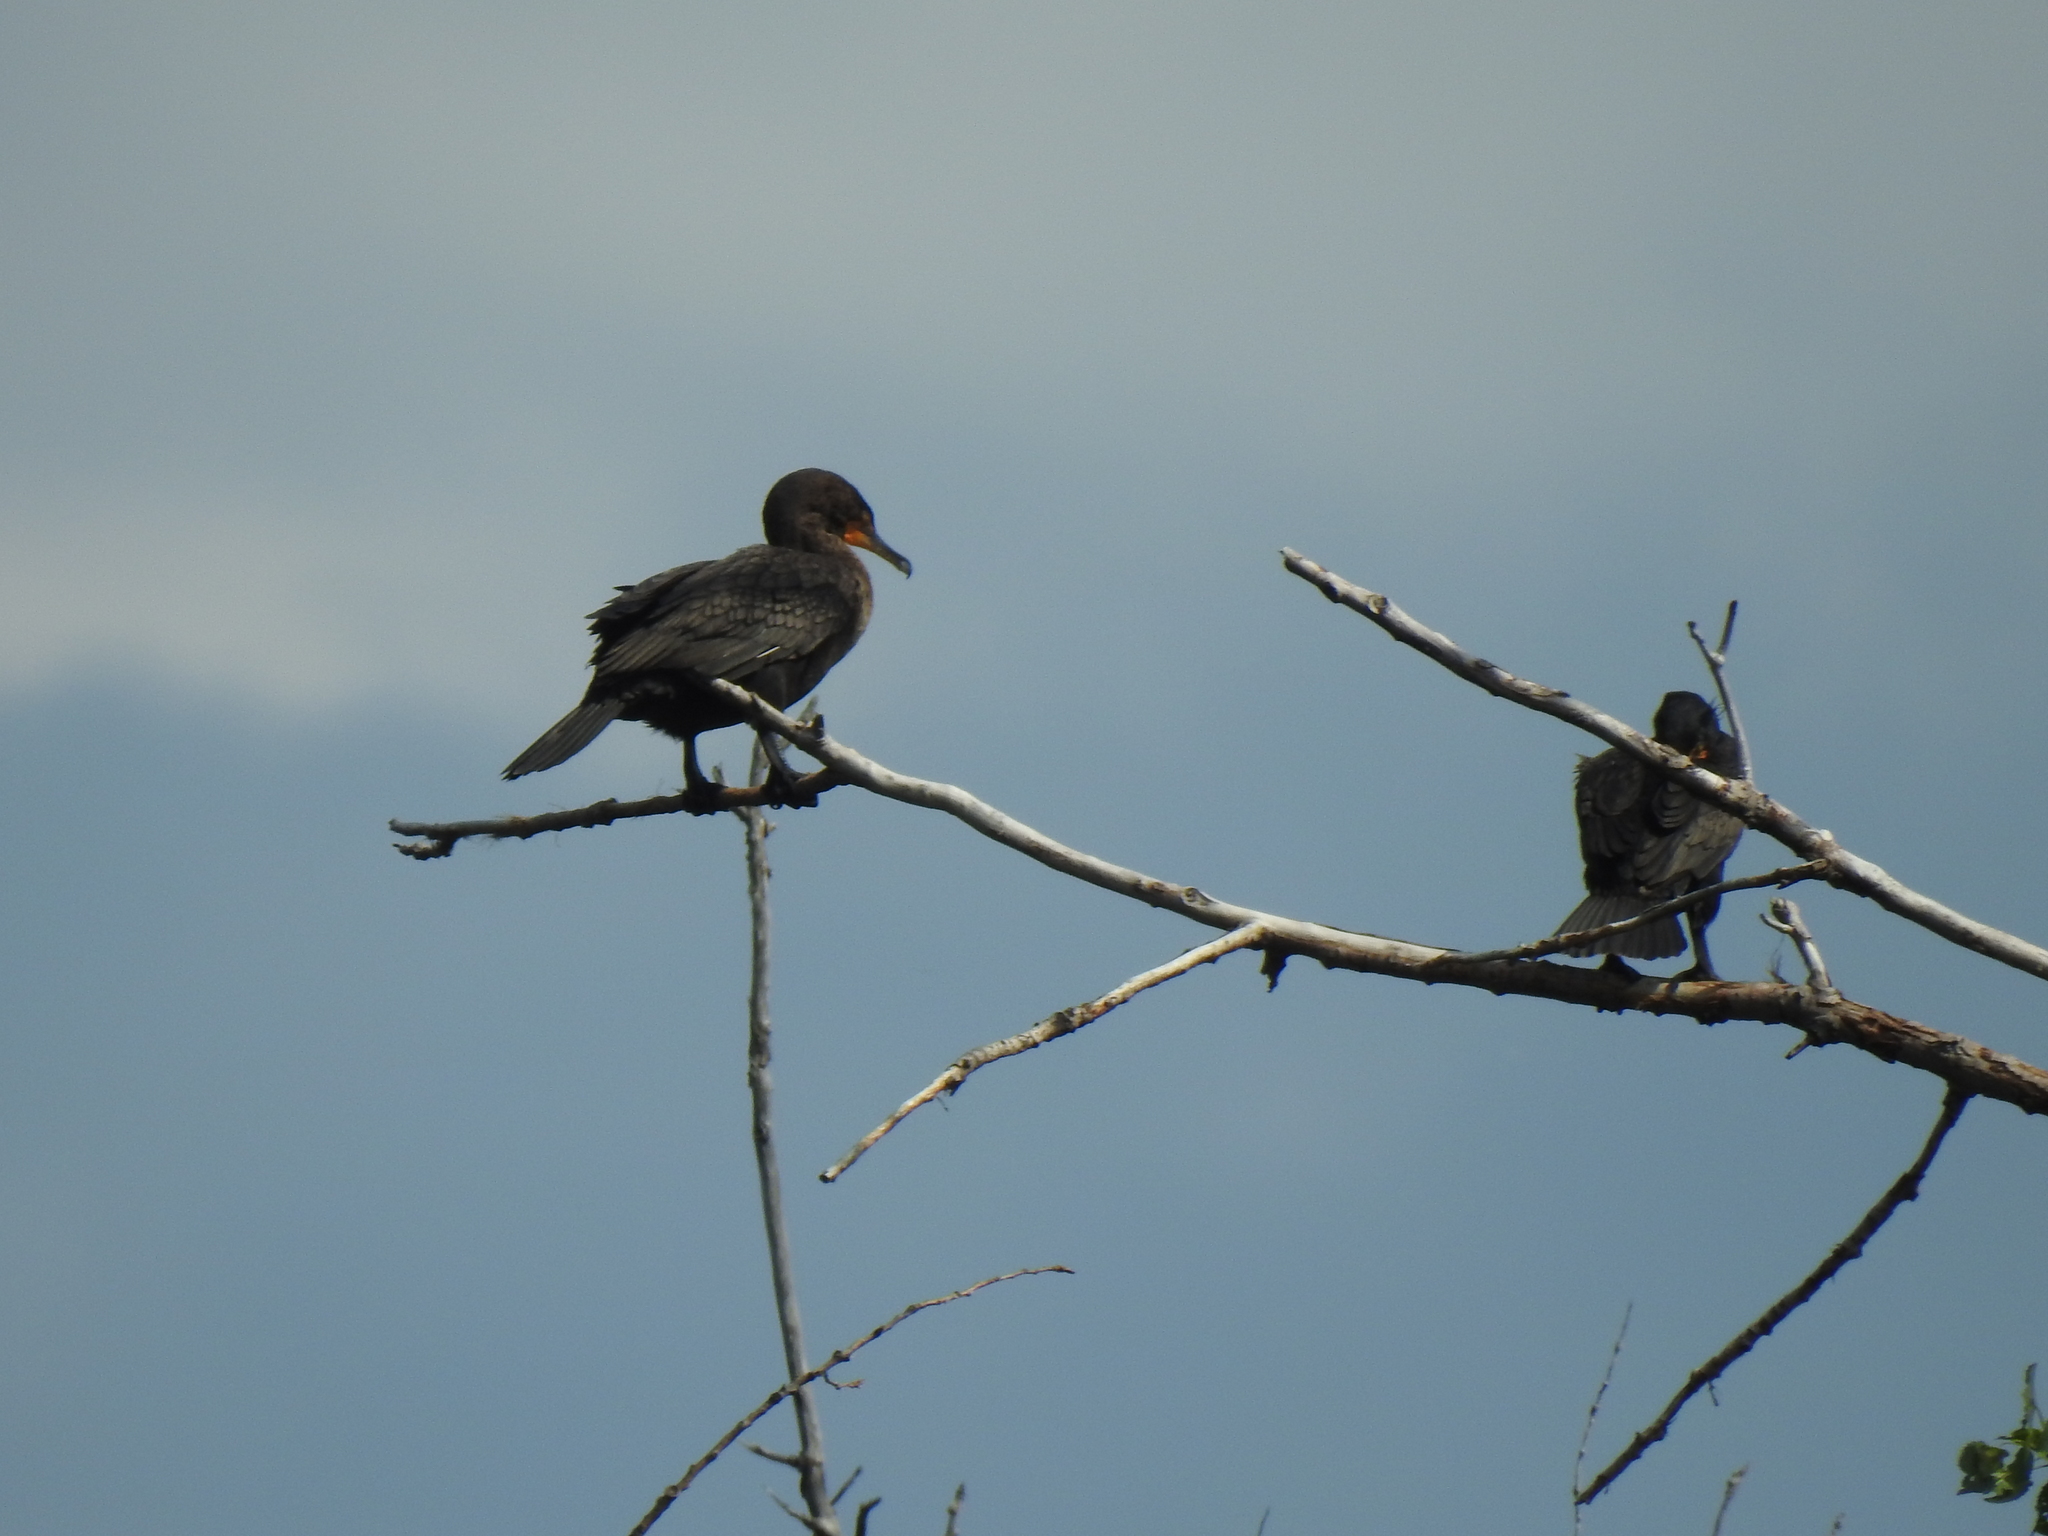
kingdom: Animalia
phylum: Chordata
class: Aves
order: Suliformes
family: Phalacrocoracidae
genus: Phalacrocorax
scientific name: Phalacrocorax auritus
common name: Double-crested cormorant
